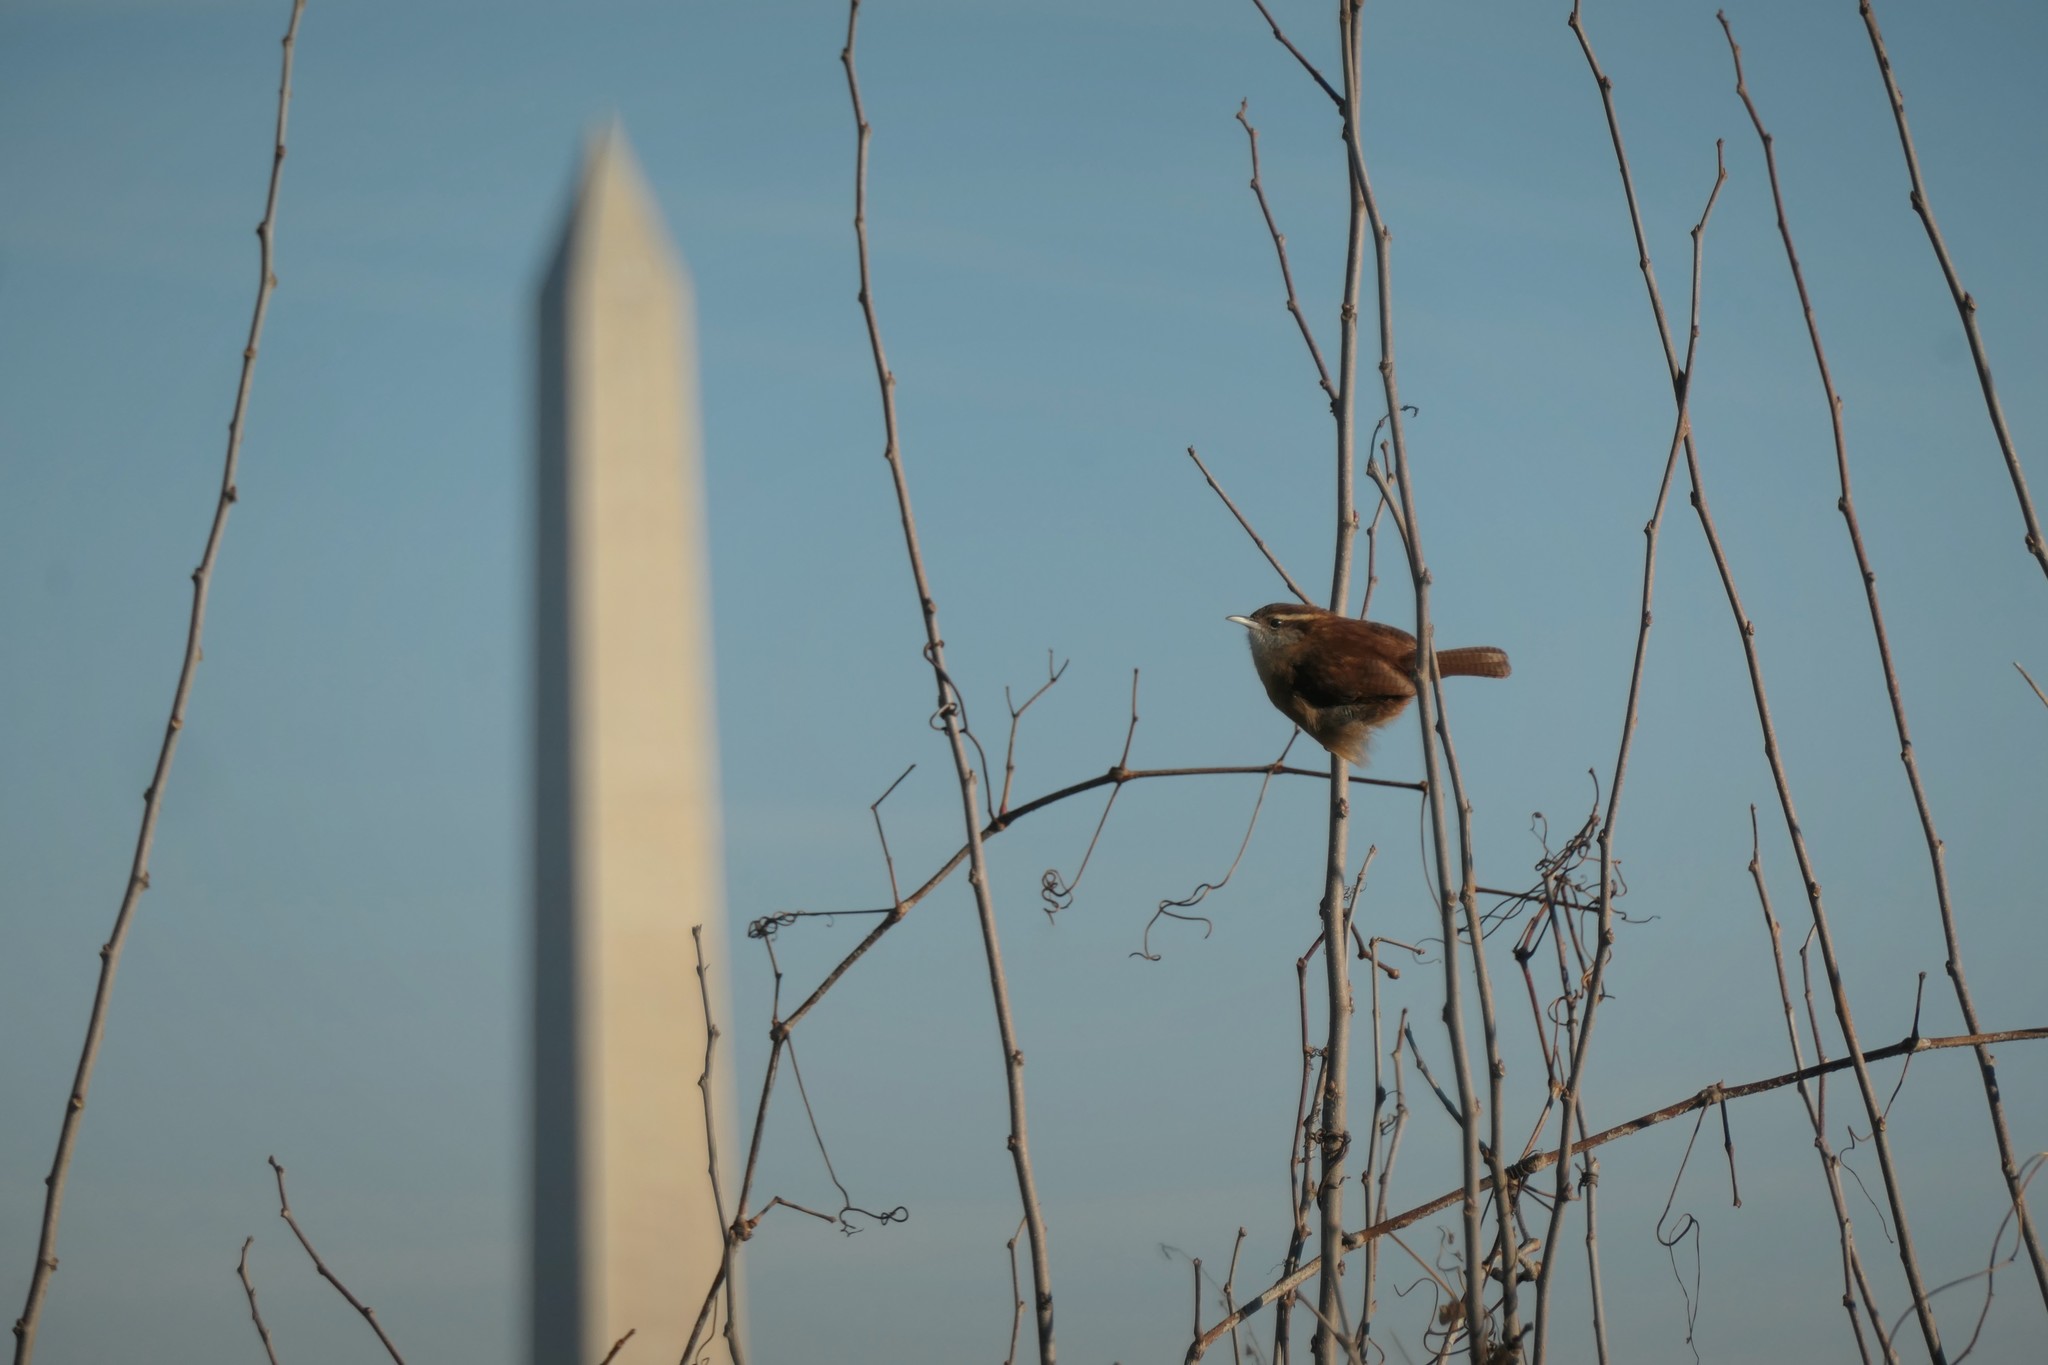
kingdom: Animalia
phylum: Chordata
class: Aves
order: Passeriformes
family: Troglodytidae
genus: Thryothorus
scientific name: Thryothorus ludovicianus
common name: Carolina wren
